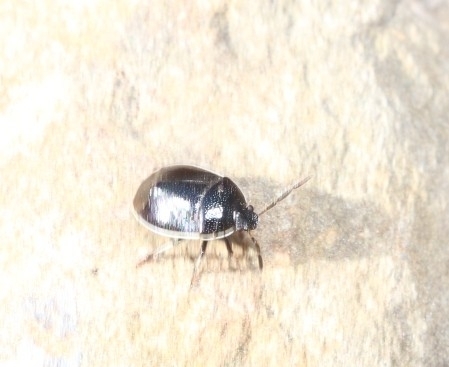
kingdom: Animalia
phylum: Arthropoda
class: Insecta
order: Hemiptera
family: Cydnidae
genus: Sehirus
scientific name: Sehirus cinctus
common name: White-margined burrower bug
